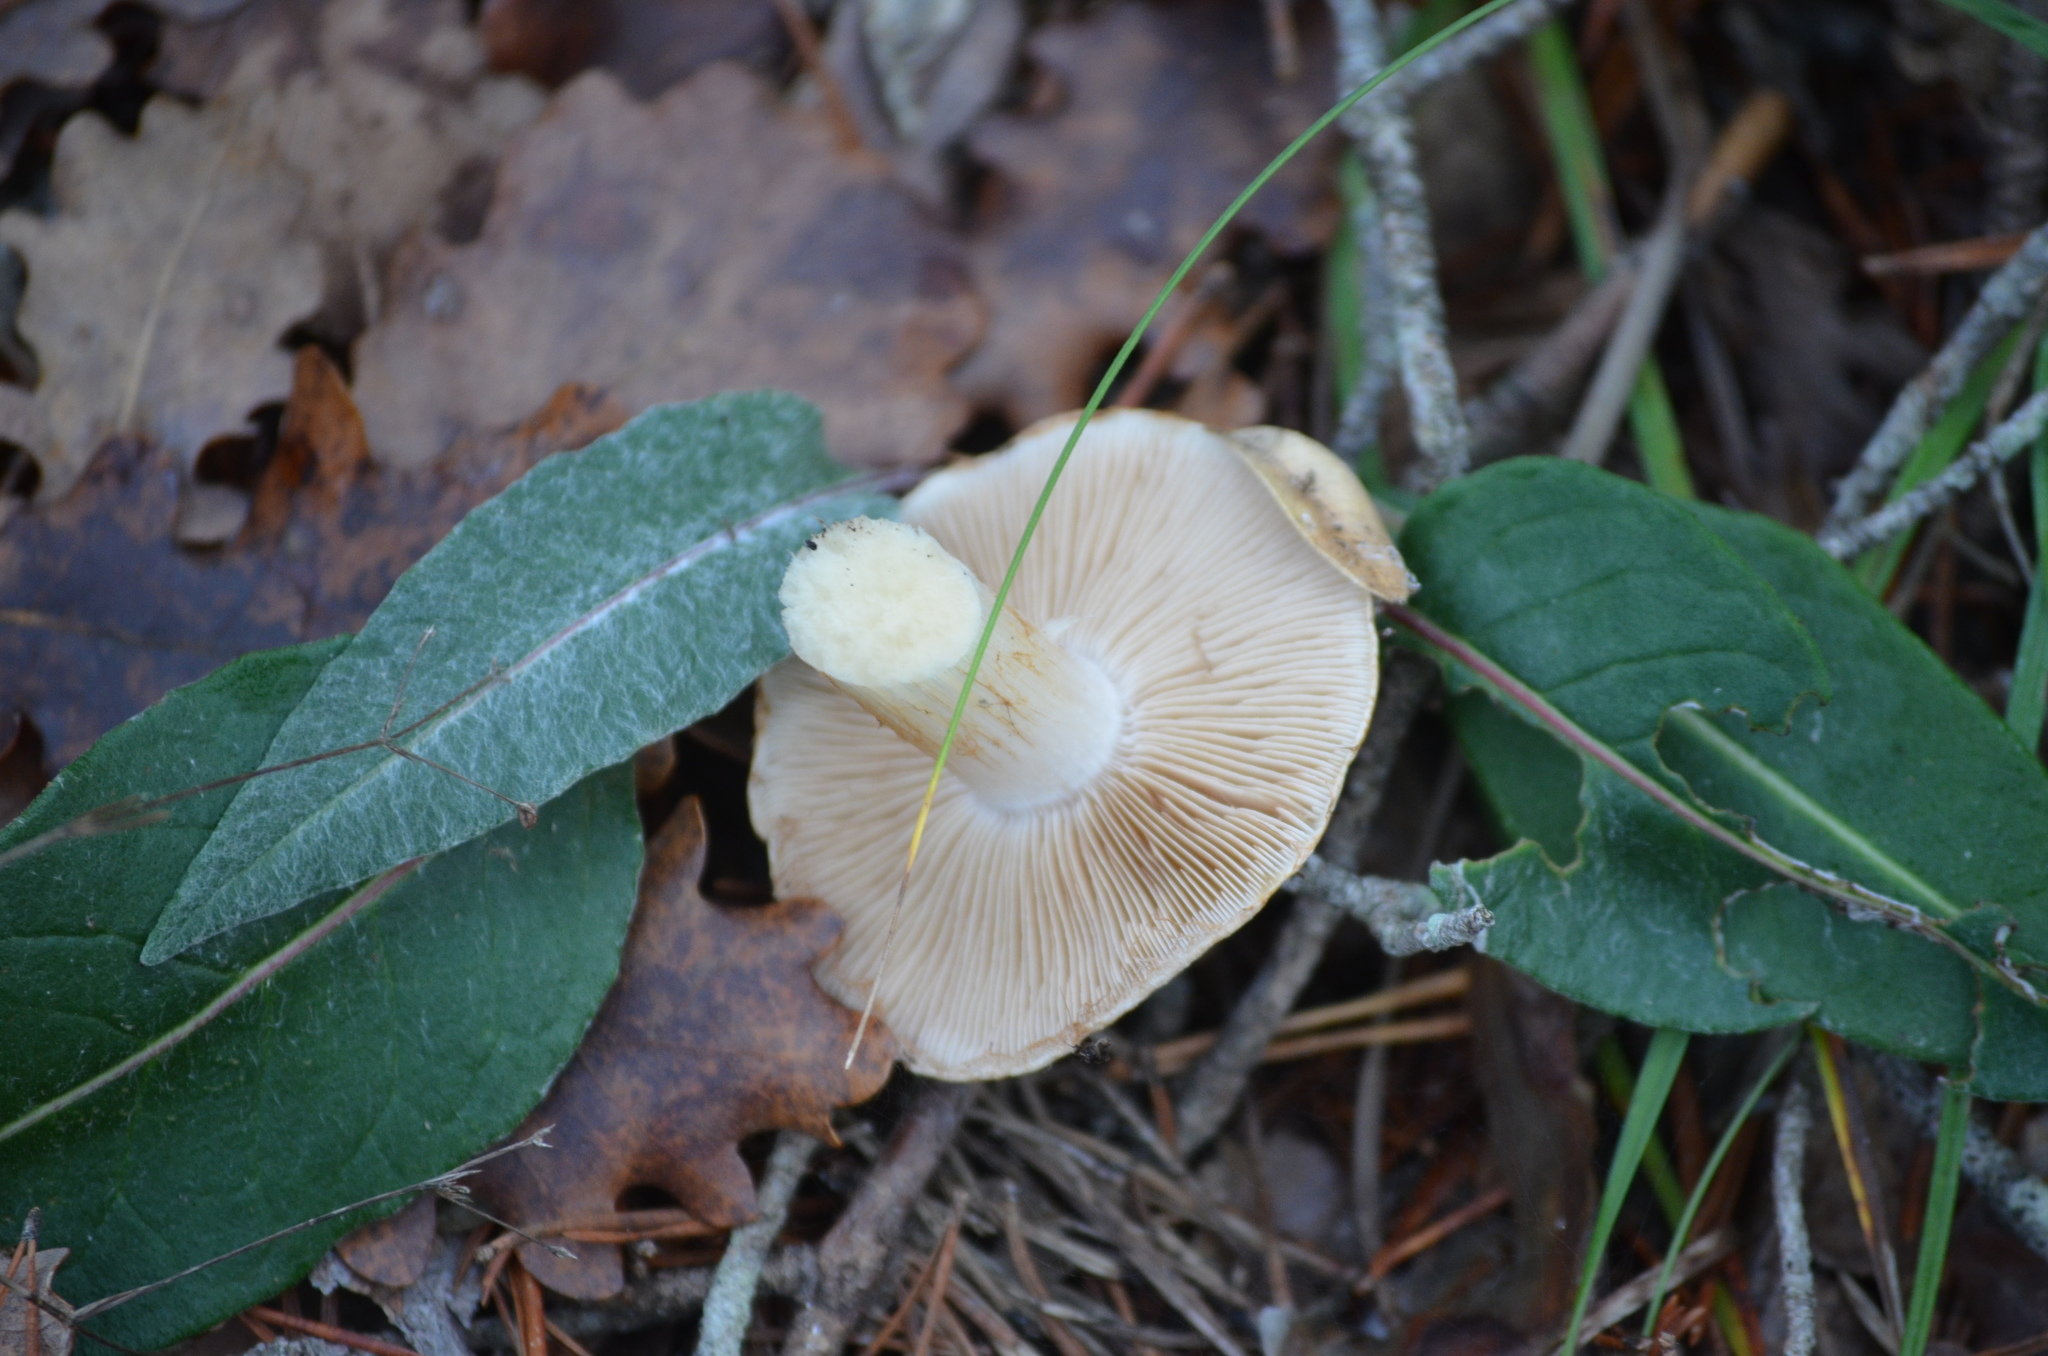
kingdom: Fungi
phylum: Basidiomycota
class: Agaricomycetes
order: Russulales
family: Russulaceae
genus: Russula
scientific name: Russula cerolens
